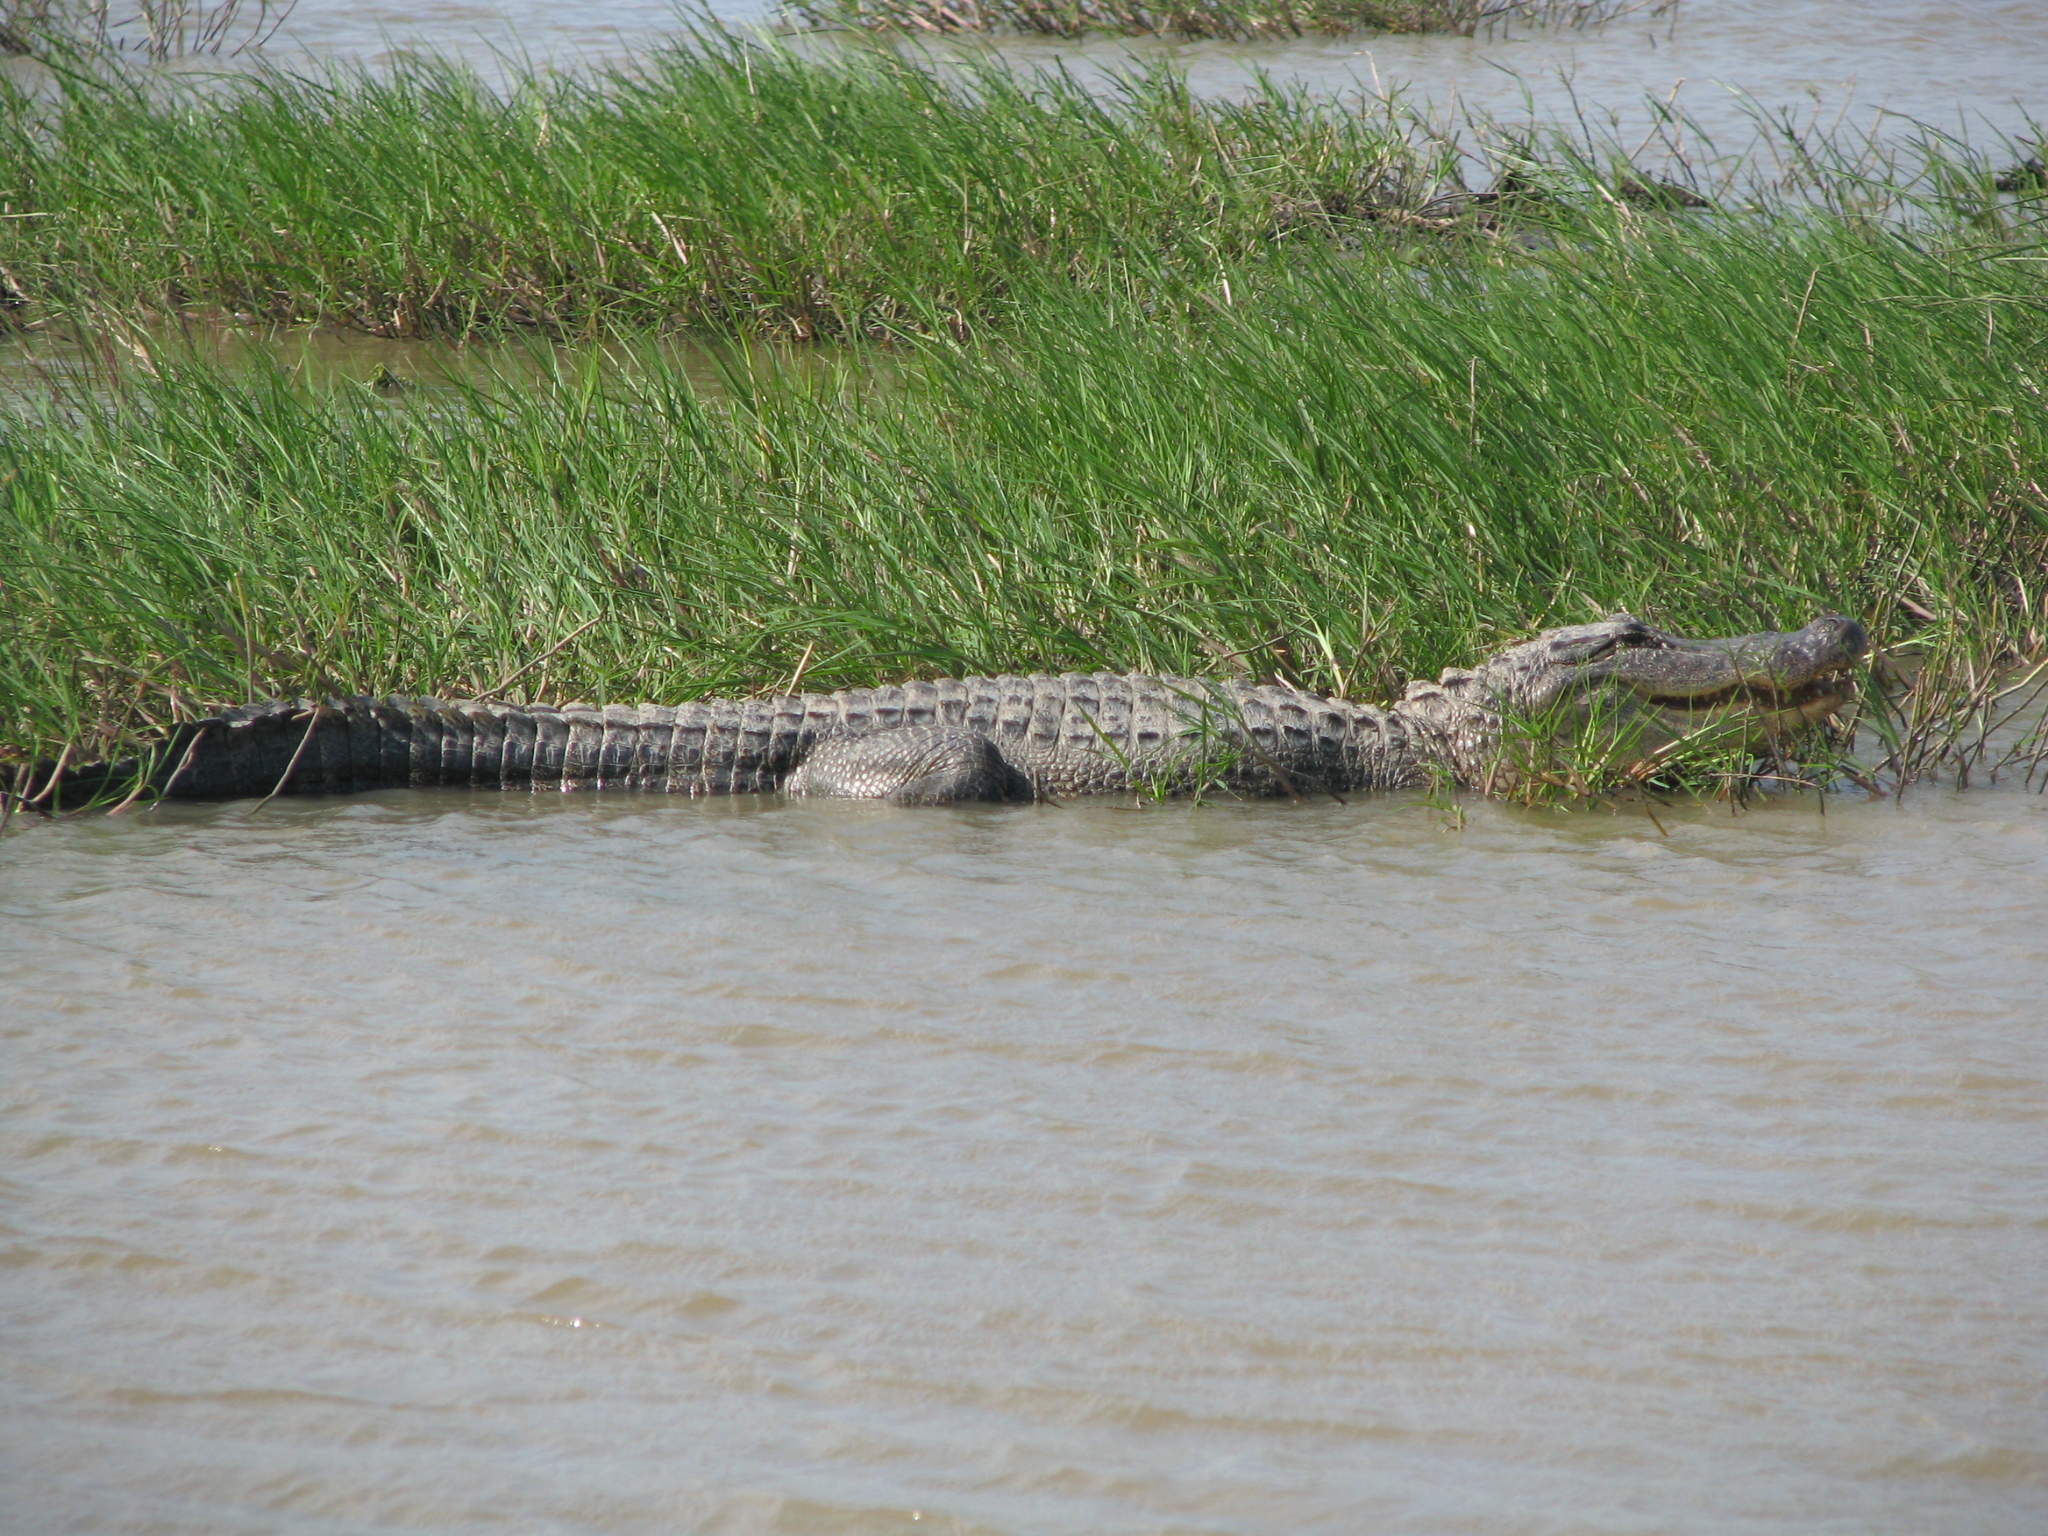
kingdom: Animalia
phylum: Chordata
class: Crocodylia
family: Alligatoridae
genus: Alligator
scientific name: Alligator mississippiensis
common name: American alligator
